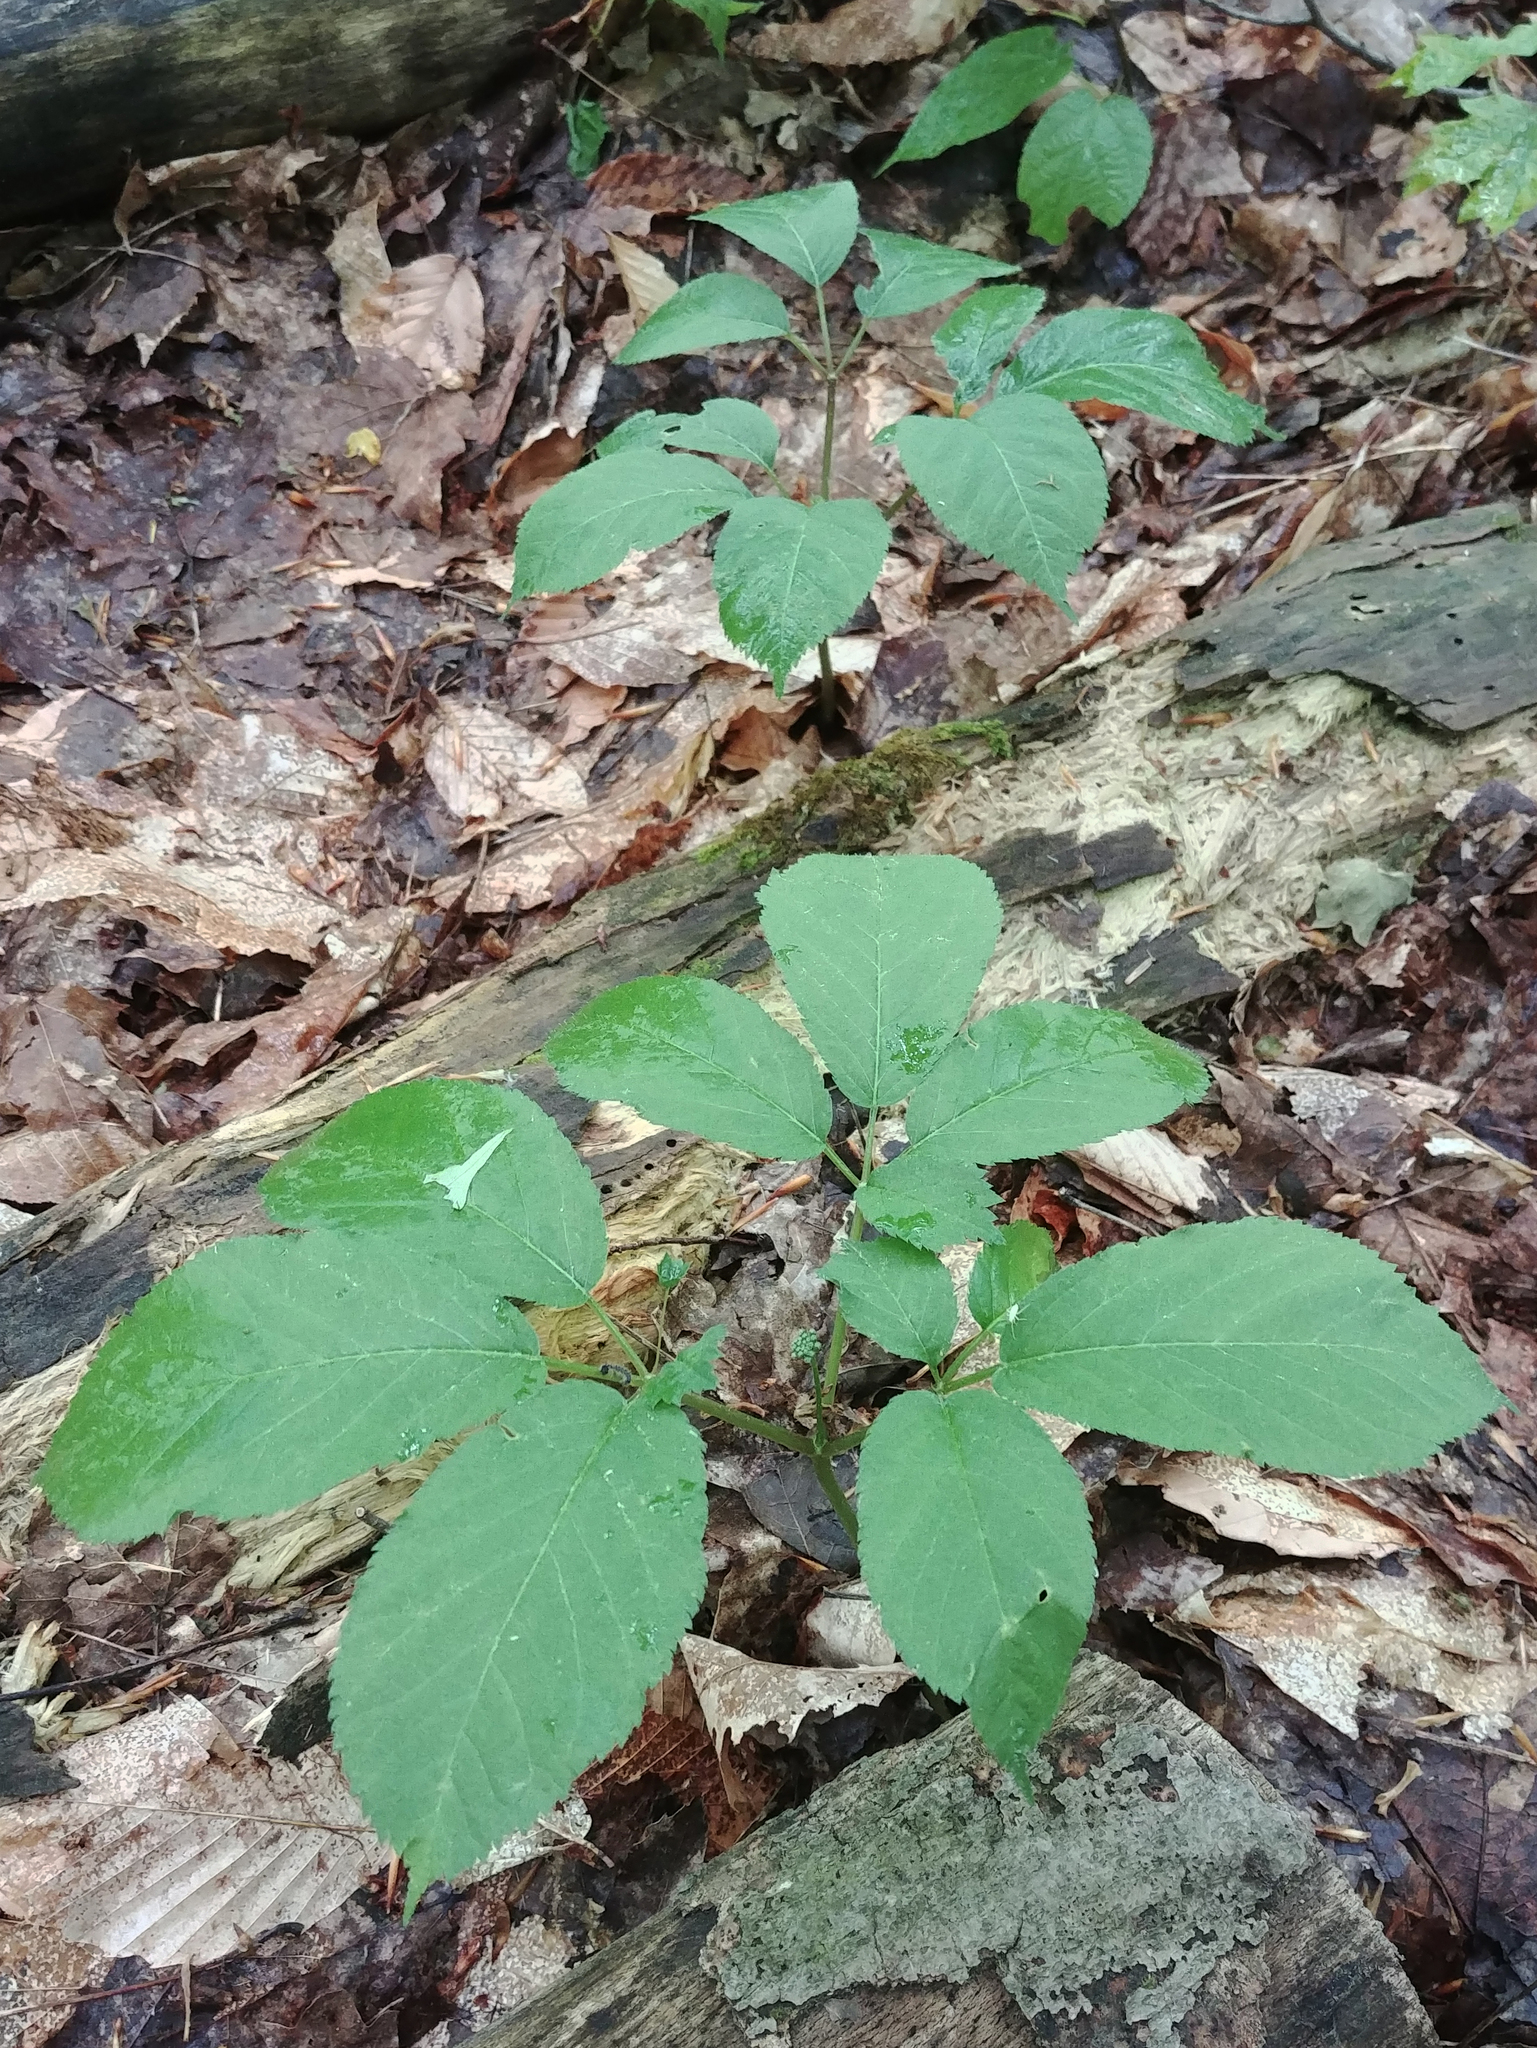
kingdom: Plantae
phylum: Tracheophyta
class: Magnoliopsida
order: Apiales
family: Araliaceae
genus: Panax
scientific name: Panax quinquefolius
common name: American ginseng
